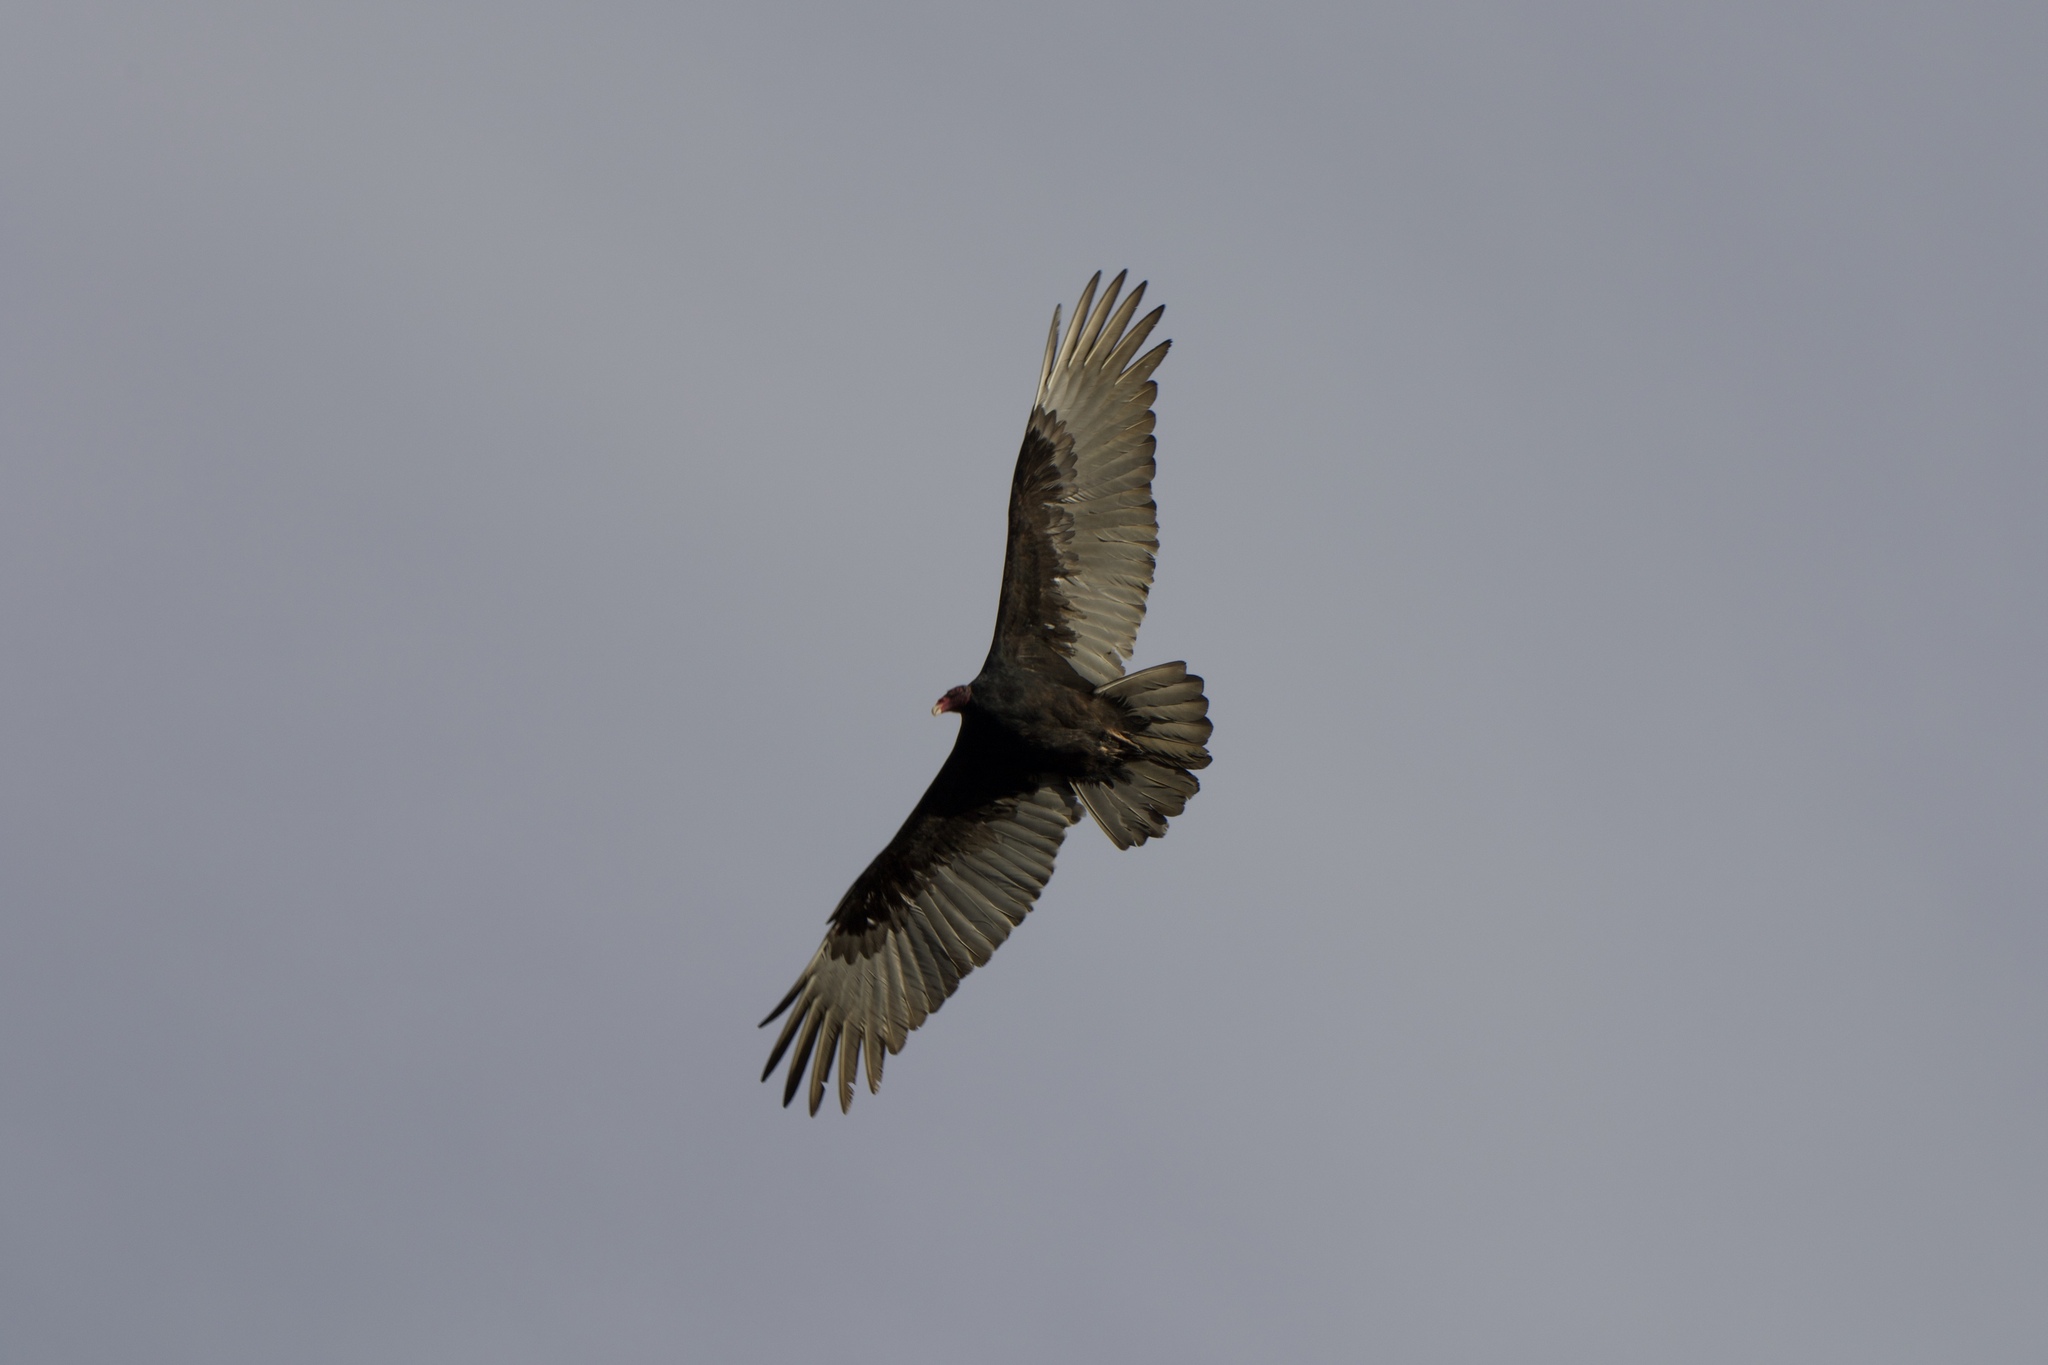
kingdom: Animalia
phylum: Chordata
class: Aves
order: Accipitriformes
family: Cathartidae
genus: Cathartes
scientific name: Cathartes aura
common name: Turkey vulture
